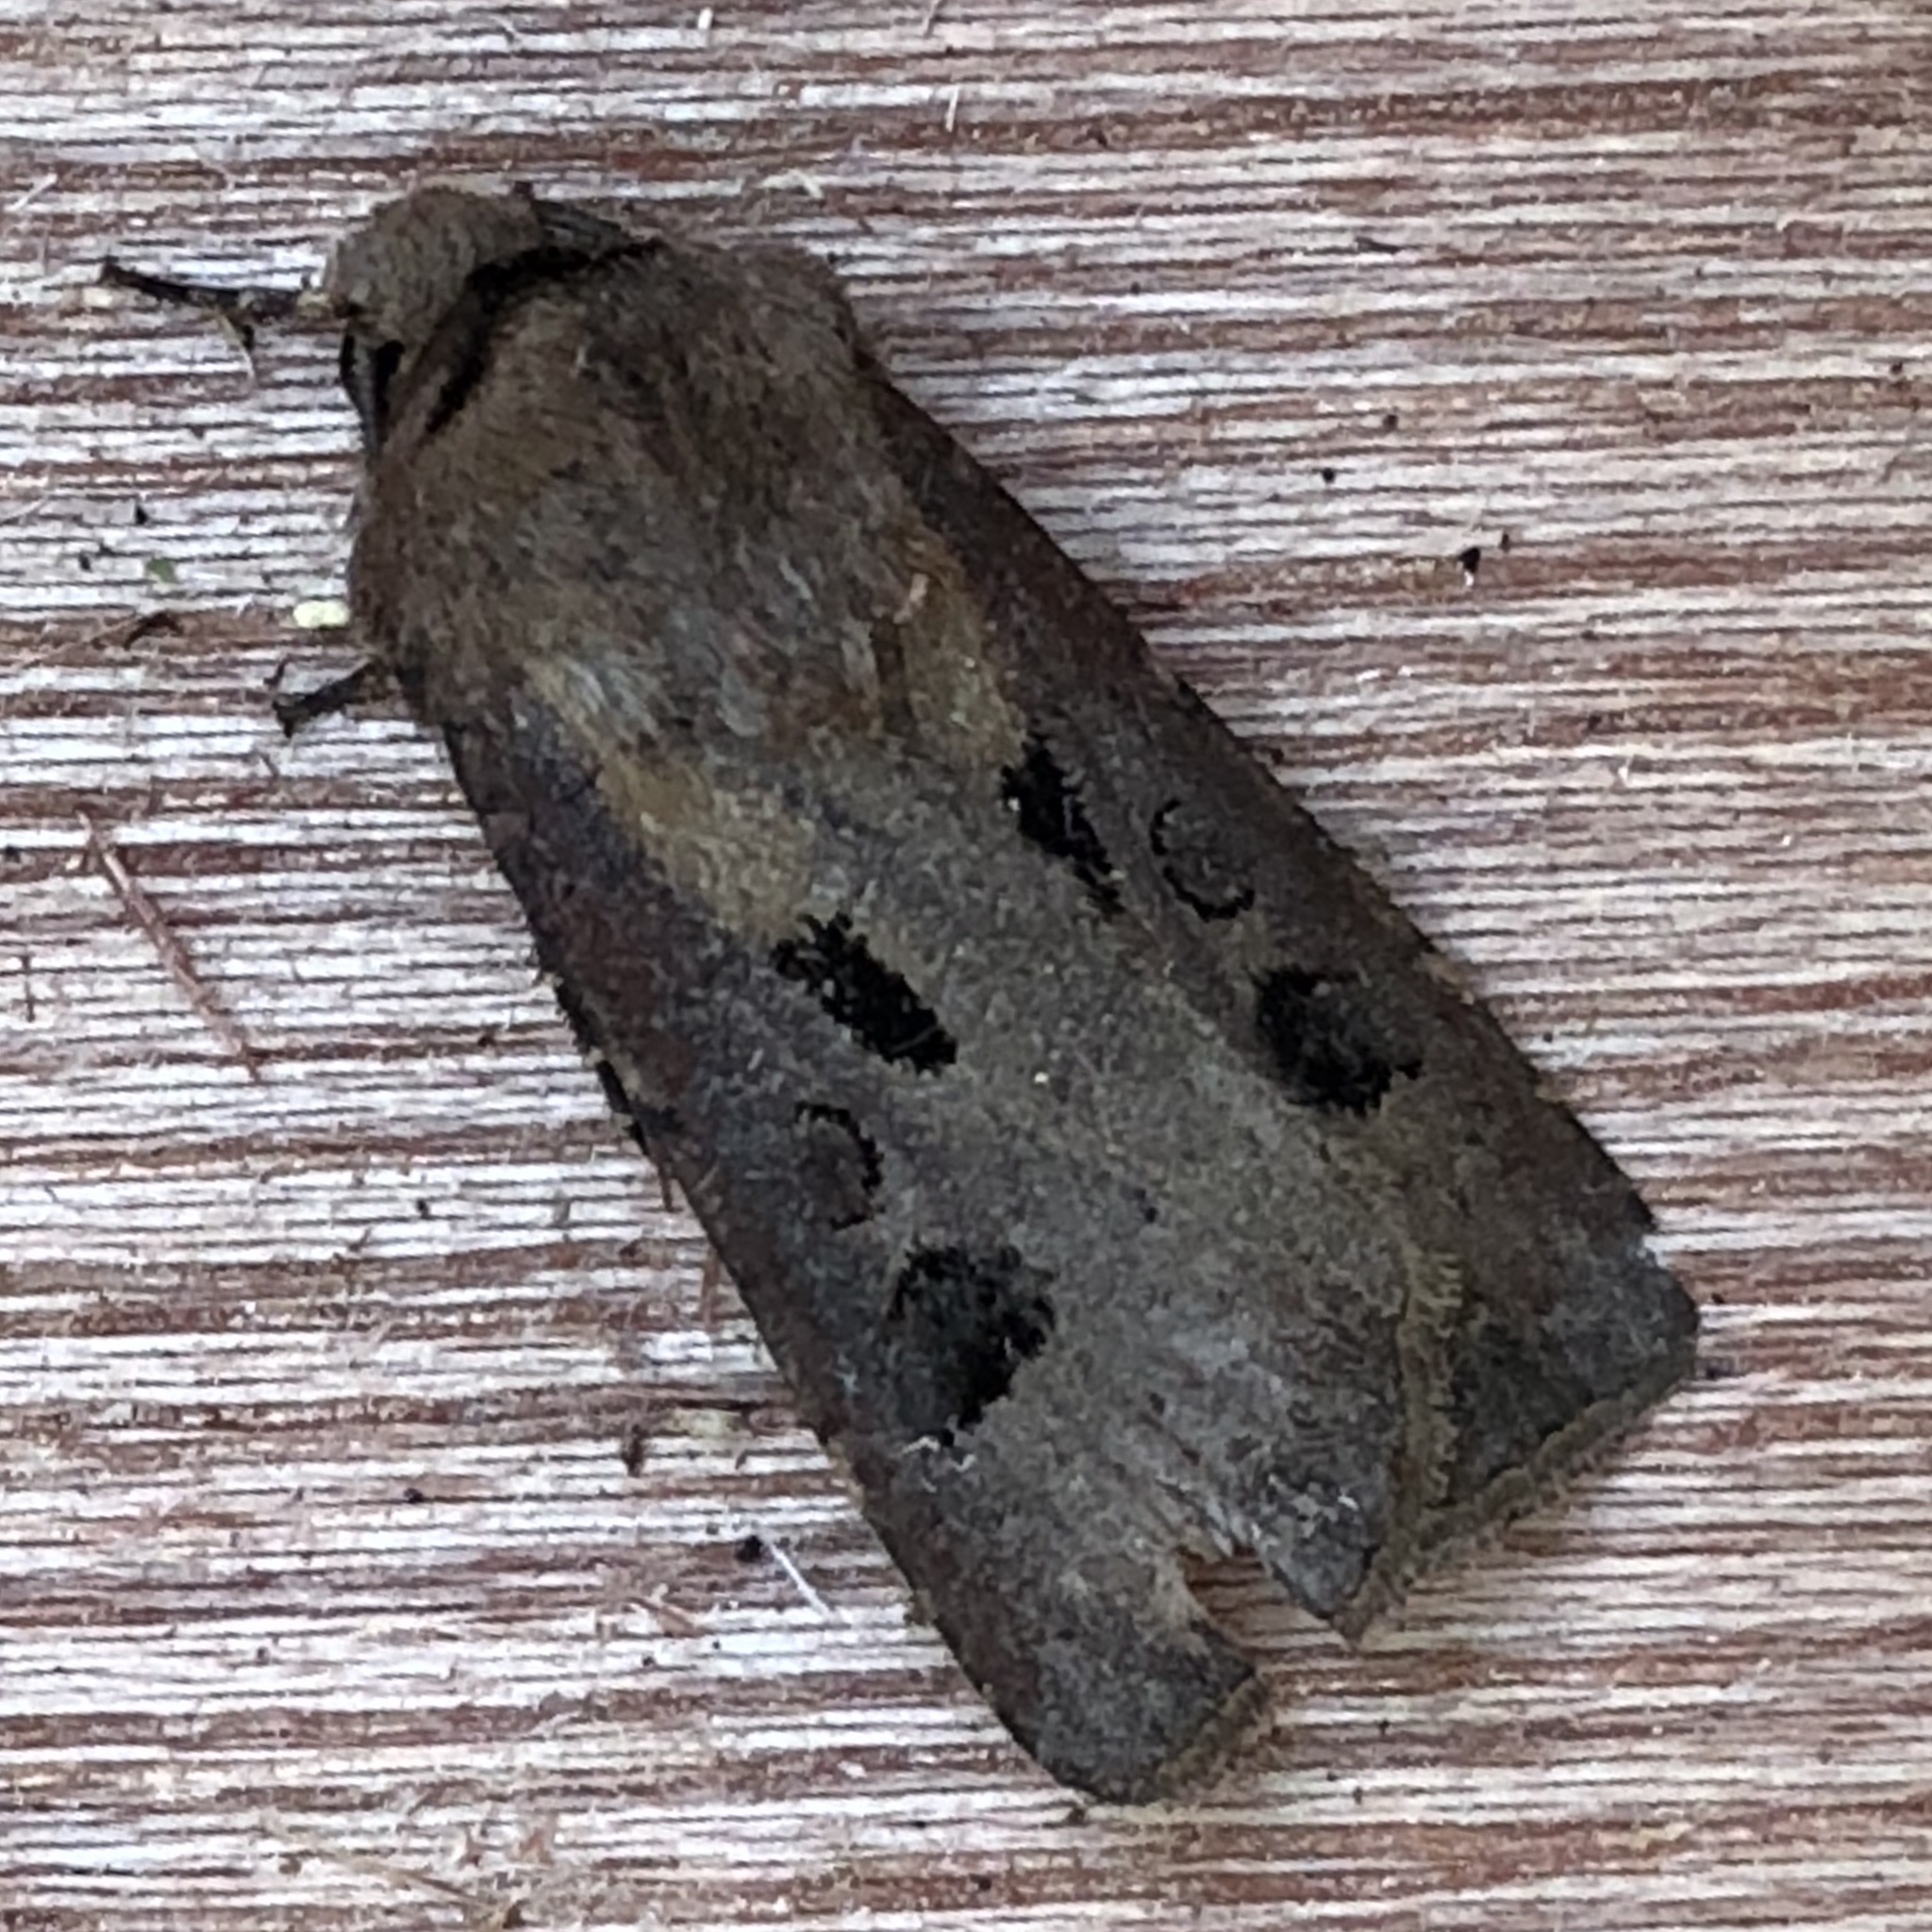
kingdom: Animalia
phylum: Arthropoda
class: Insecta
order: Lepidoptera
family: Noctuidae
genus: Agrotis
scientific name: Agrotis exclamationis
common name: Heart and dart
